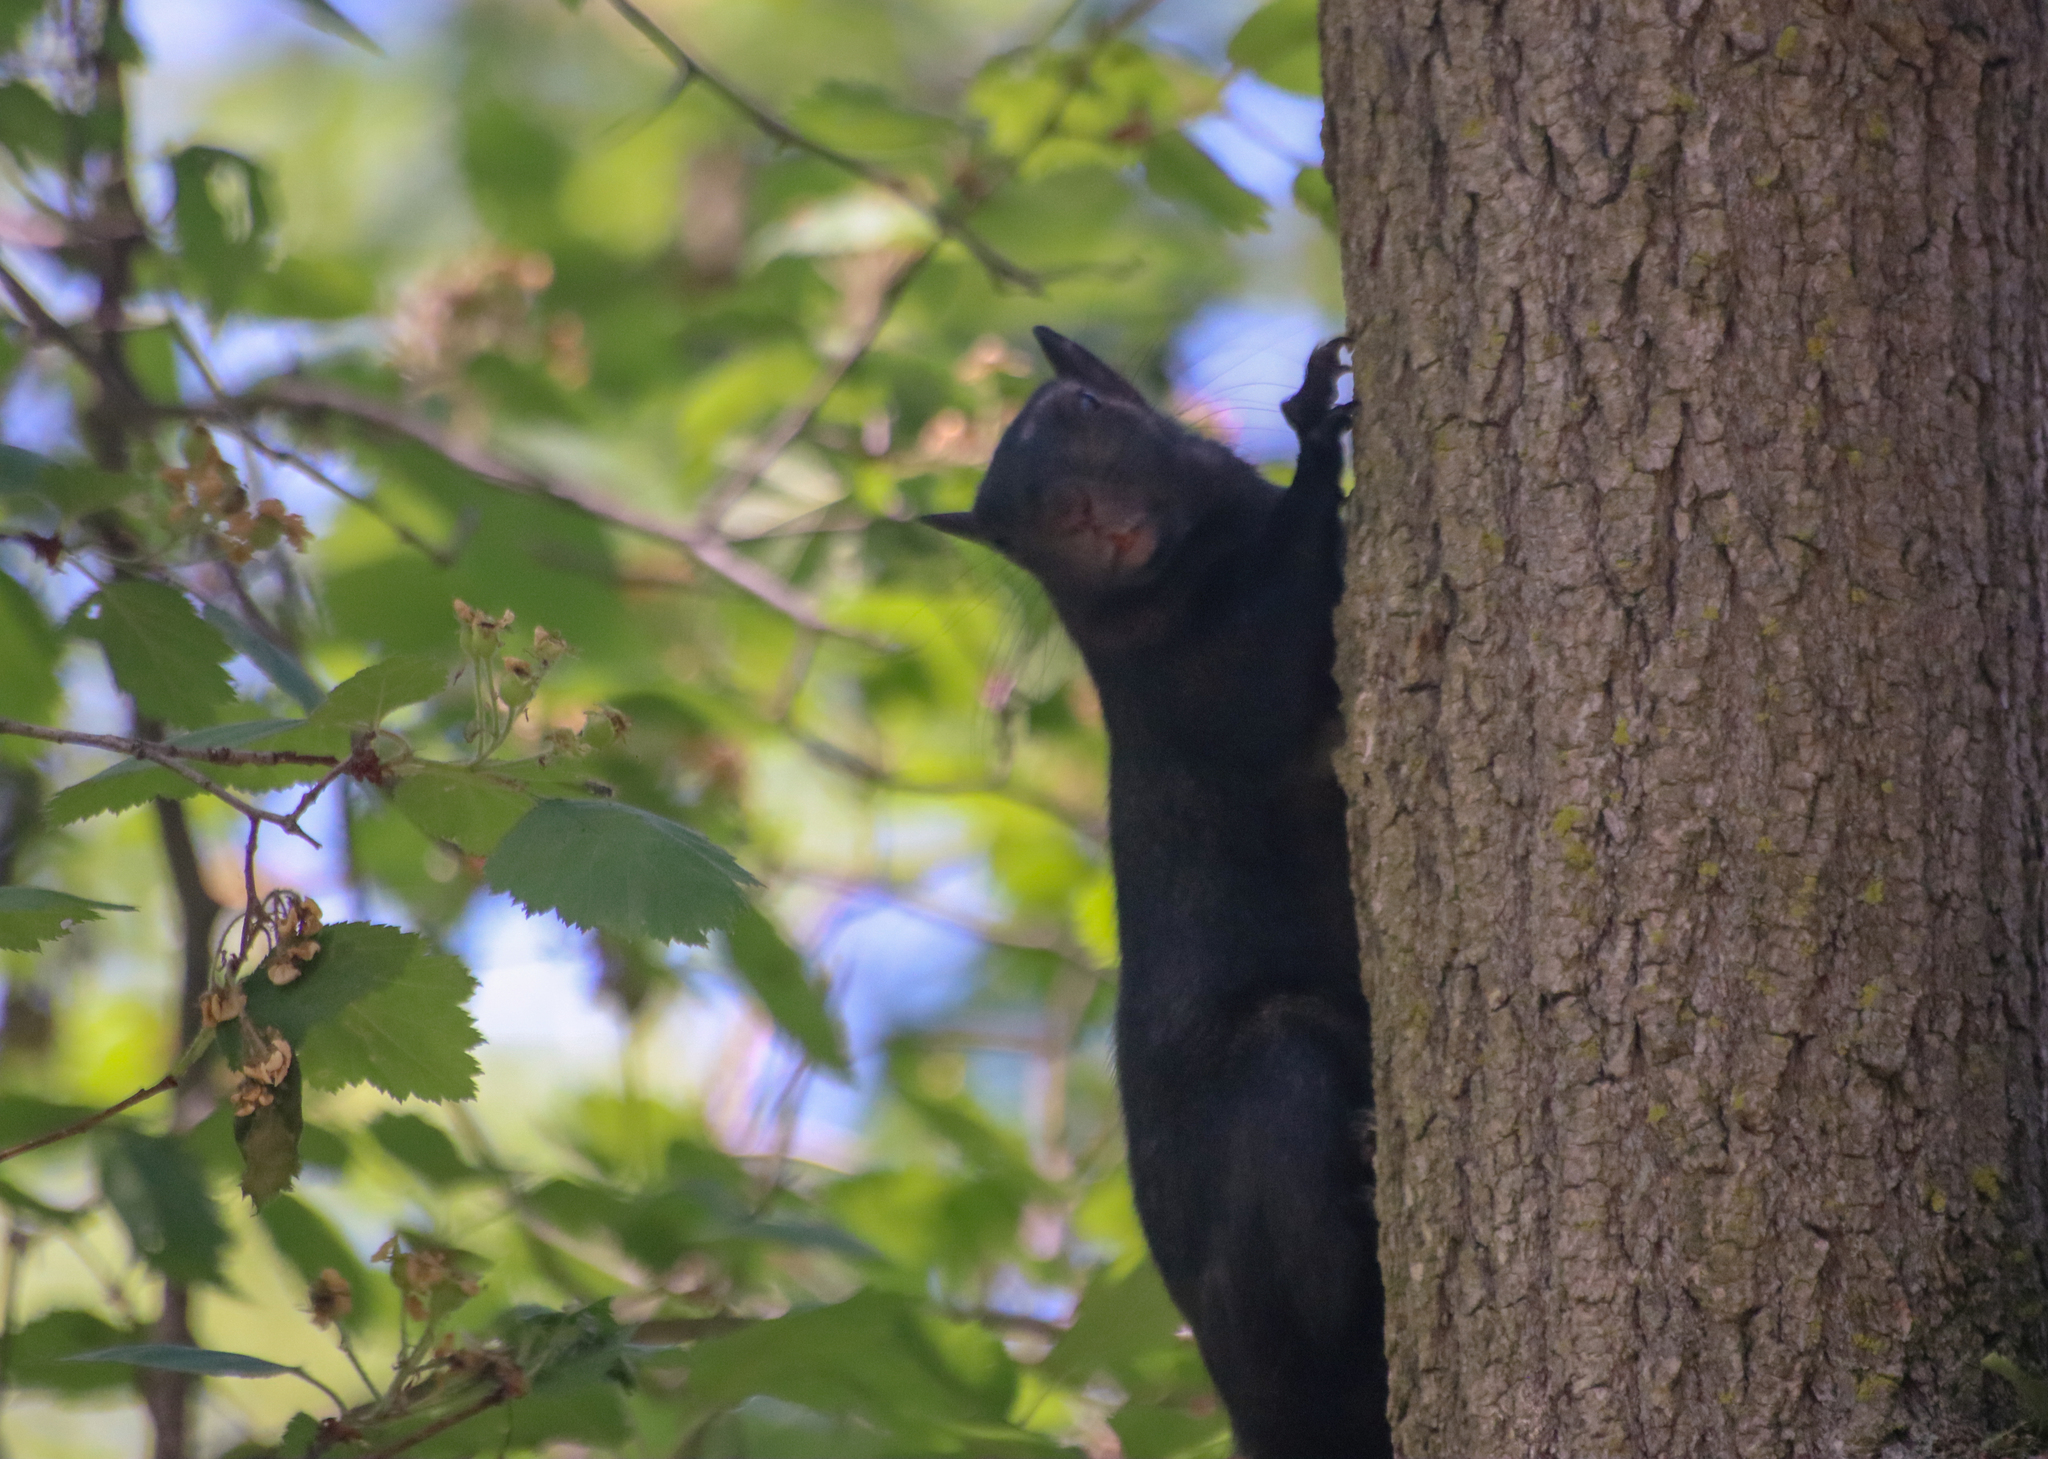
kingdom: Animalia
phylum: Chordata
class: Mammalia
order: Rodentia
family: Sciuridae
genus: Sciurus
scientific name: Sciurus carolinensis
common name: Eastern gray squirrel
